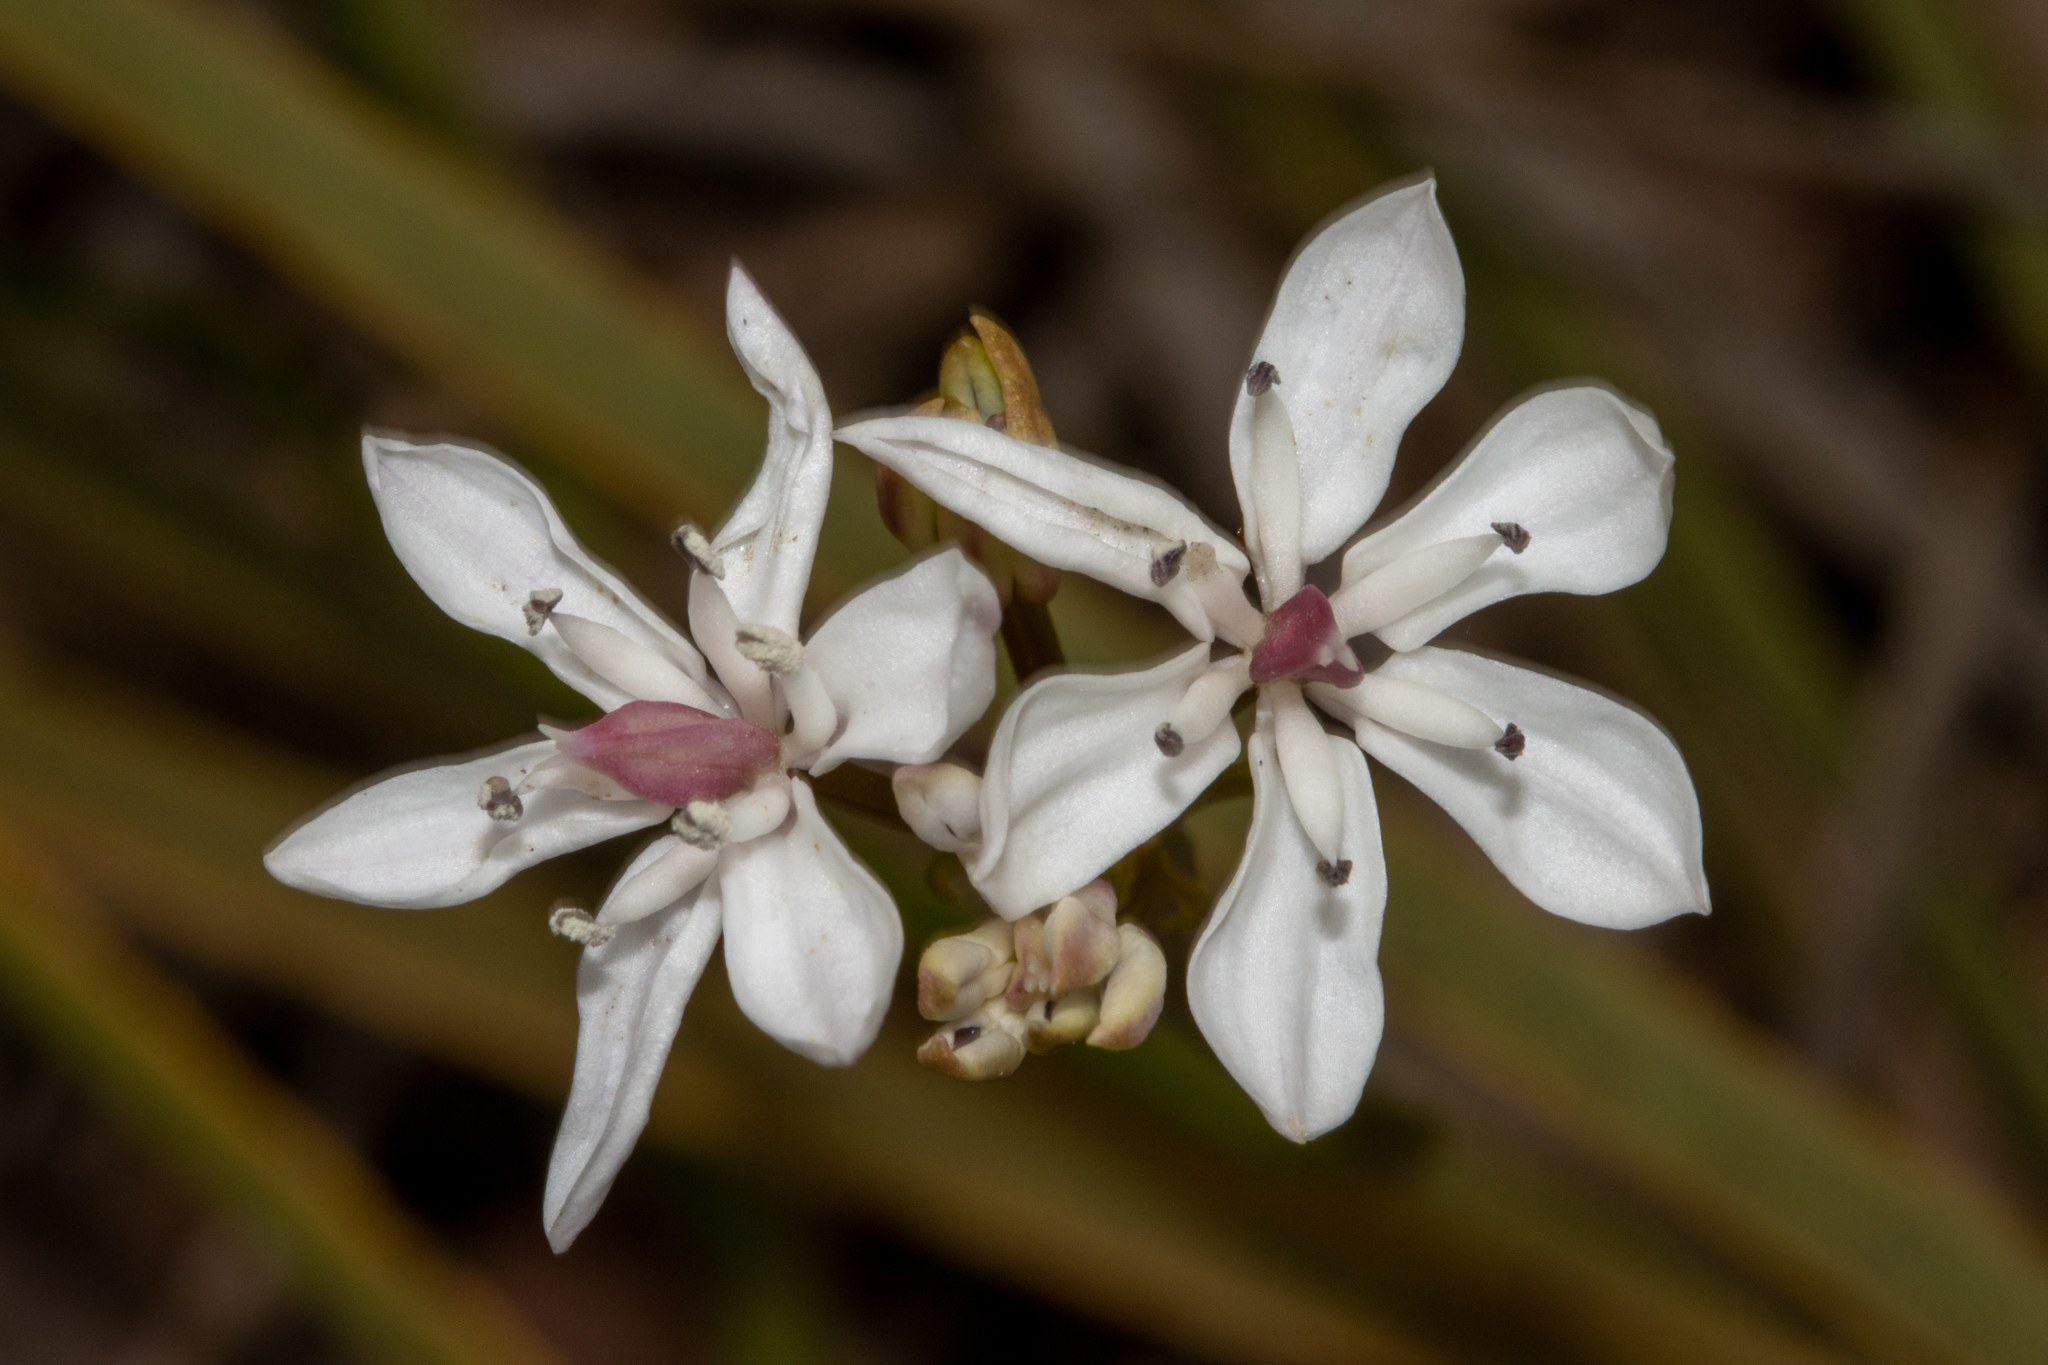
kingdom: Plantae
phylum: Tracheophyta
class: Liliopsida
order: Liliales
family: Colchicaceae
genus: Burchardia
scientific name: Burchardia umbellata
